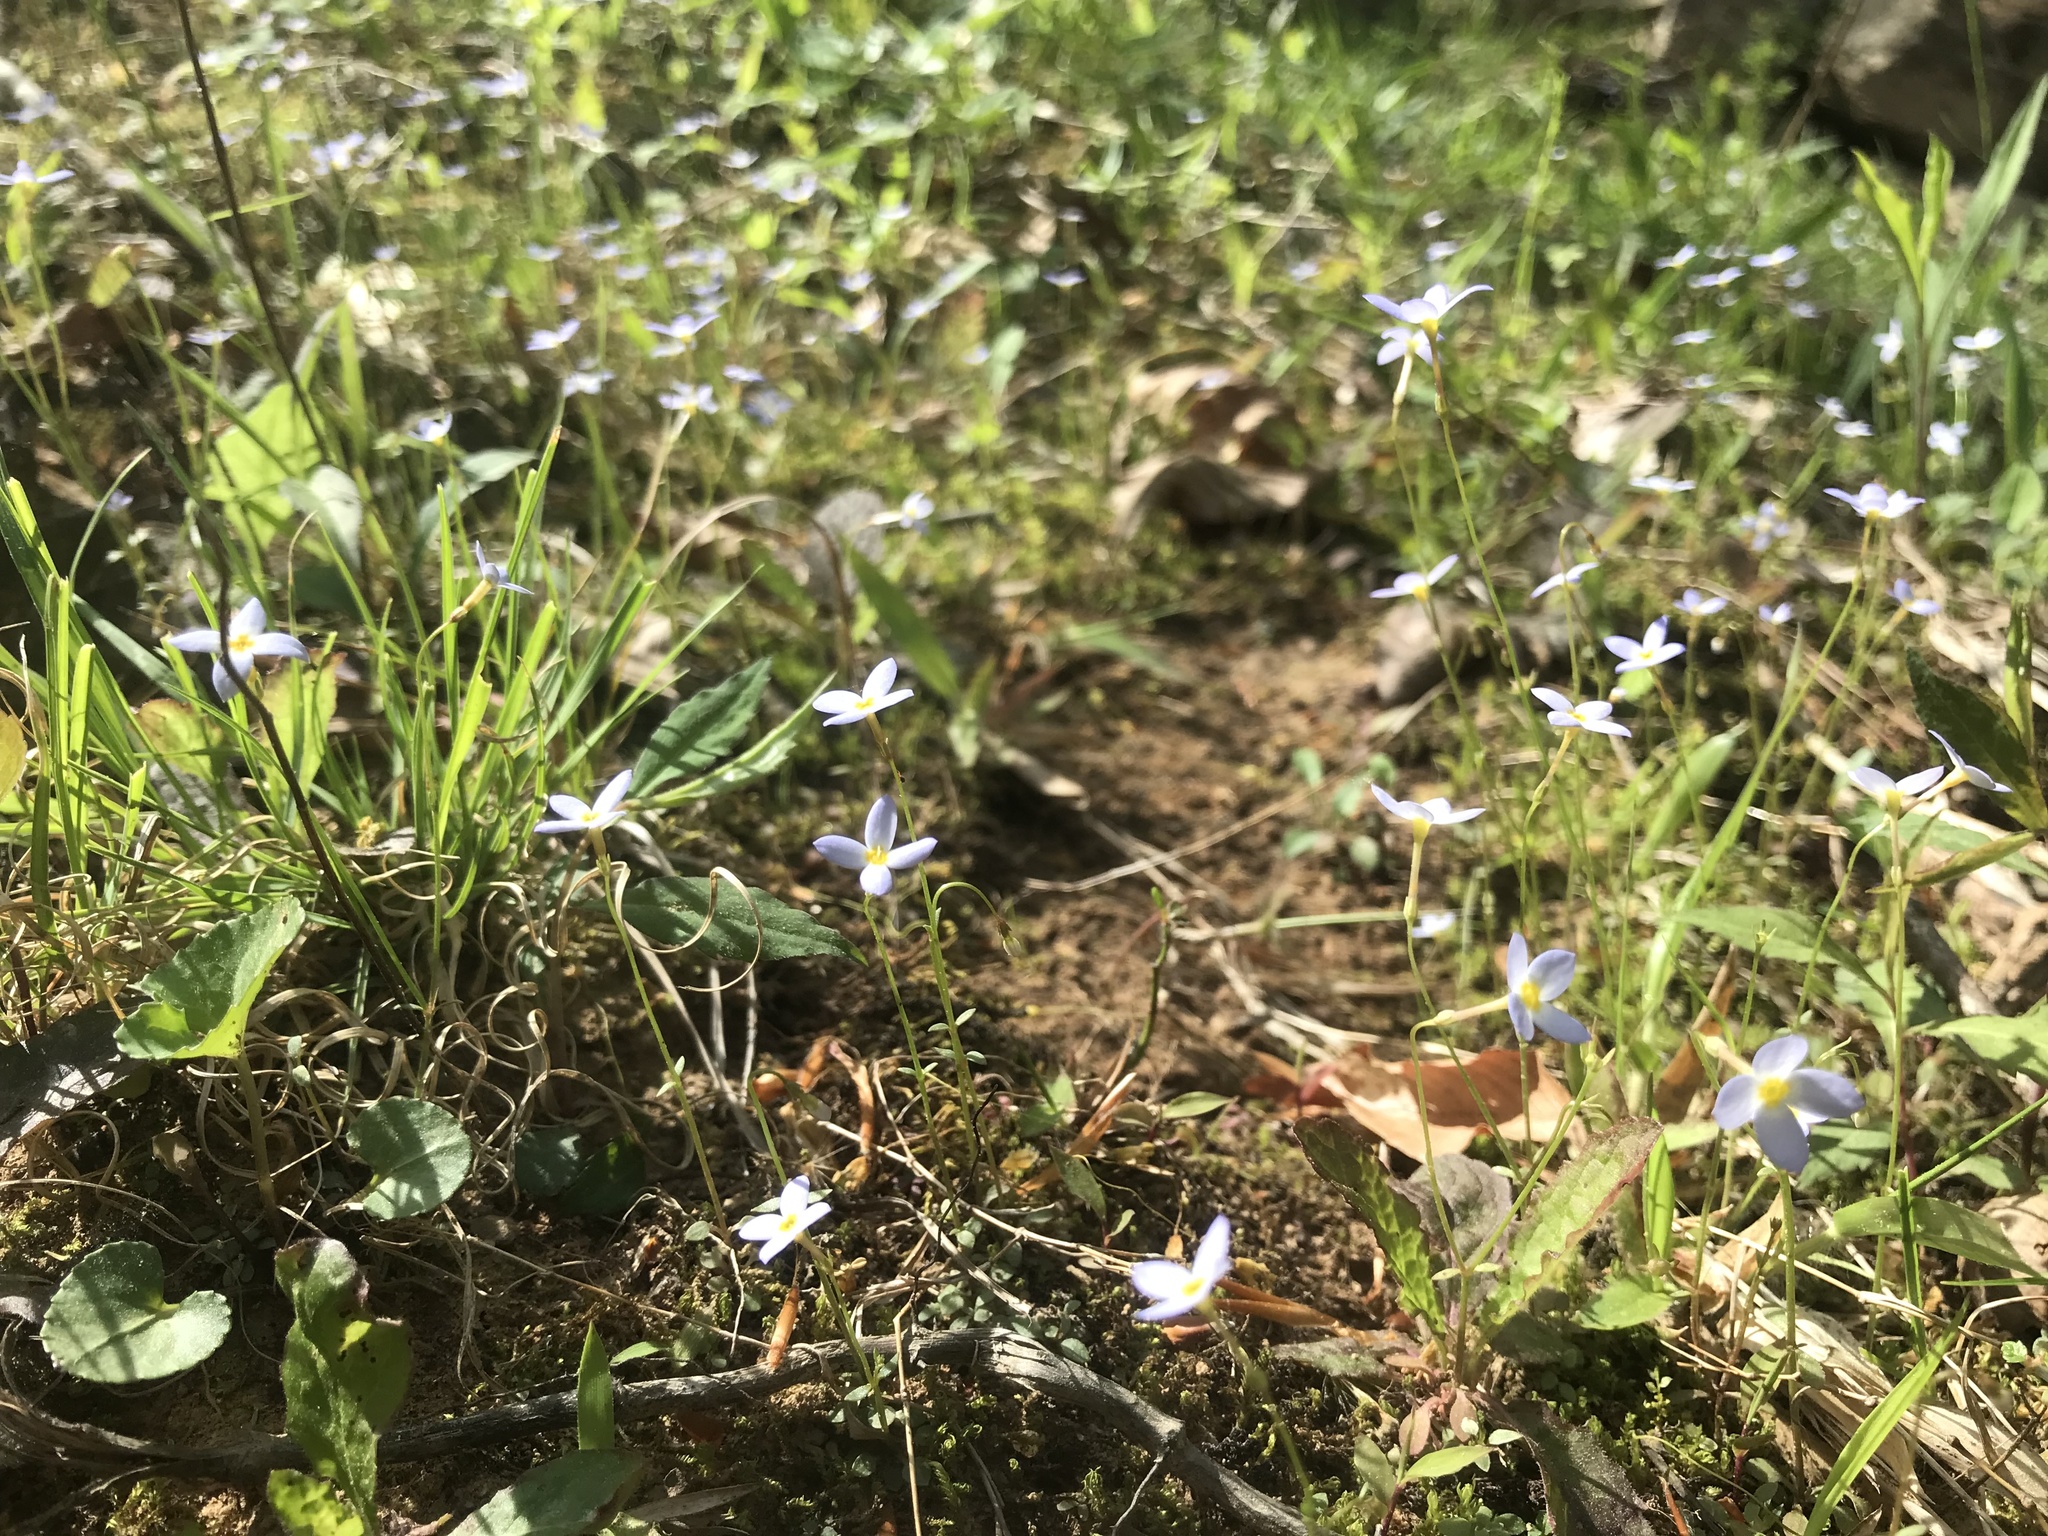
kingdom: Plantae
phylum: Tracheophyta
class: Magnoliopsida
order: Gentianales
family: Rubiaceae
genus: Houstonia
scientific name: Houstonia caerulea
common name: Bluets
